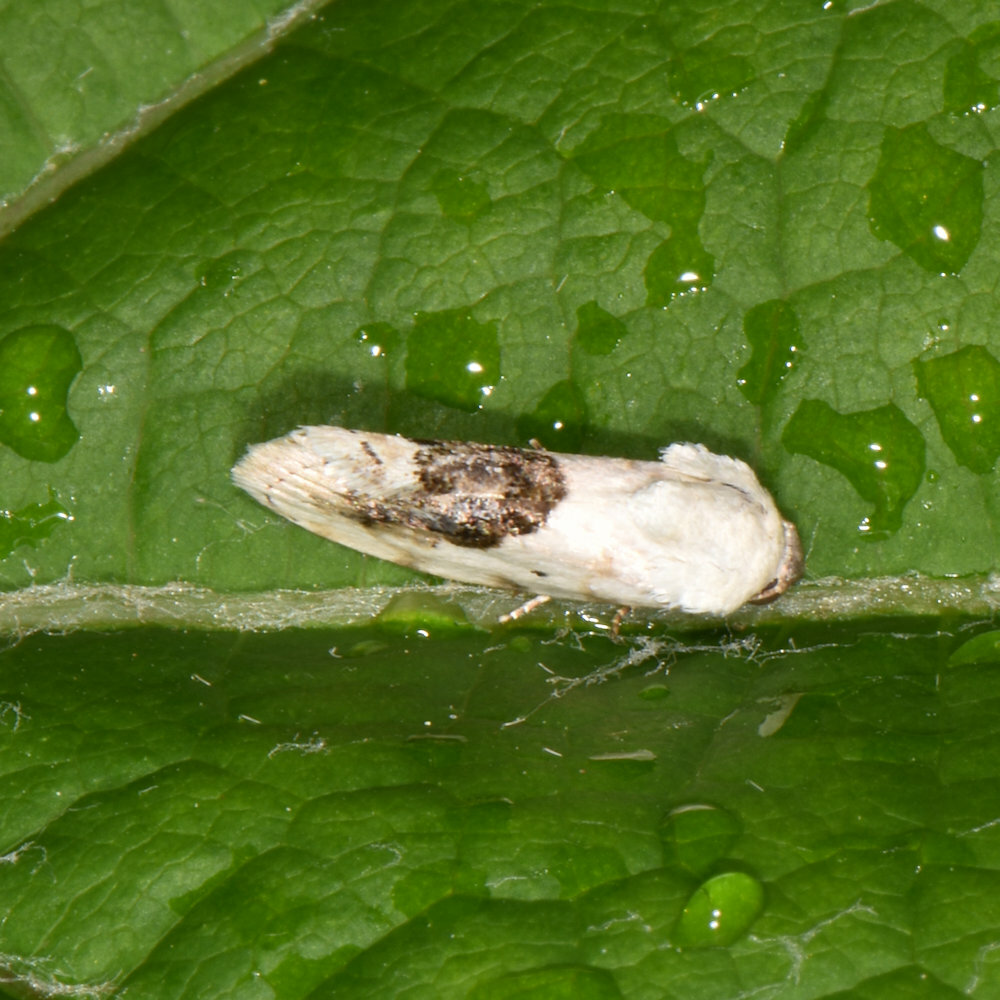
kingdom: Animalia
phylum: Arthropoda
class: Insecta
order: Lepidoptera
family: Noctuidae
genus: Acontia
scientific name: Acontia erastrioides
